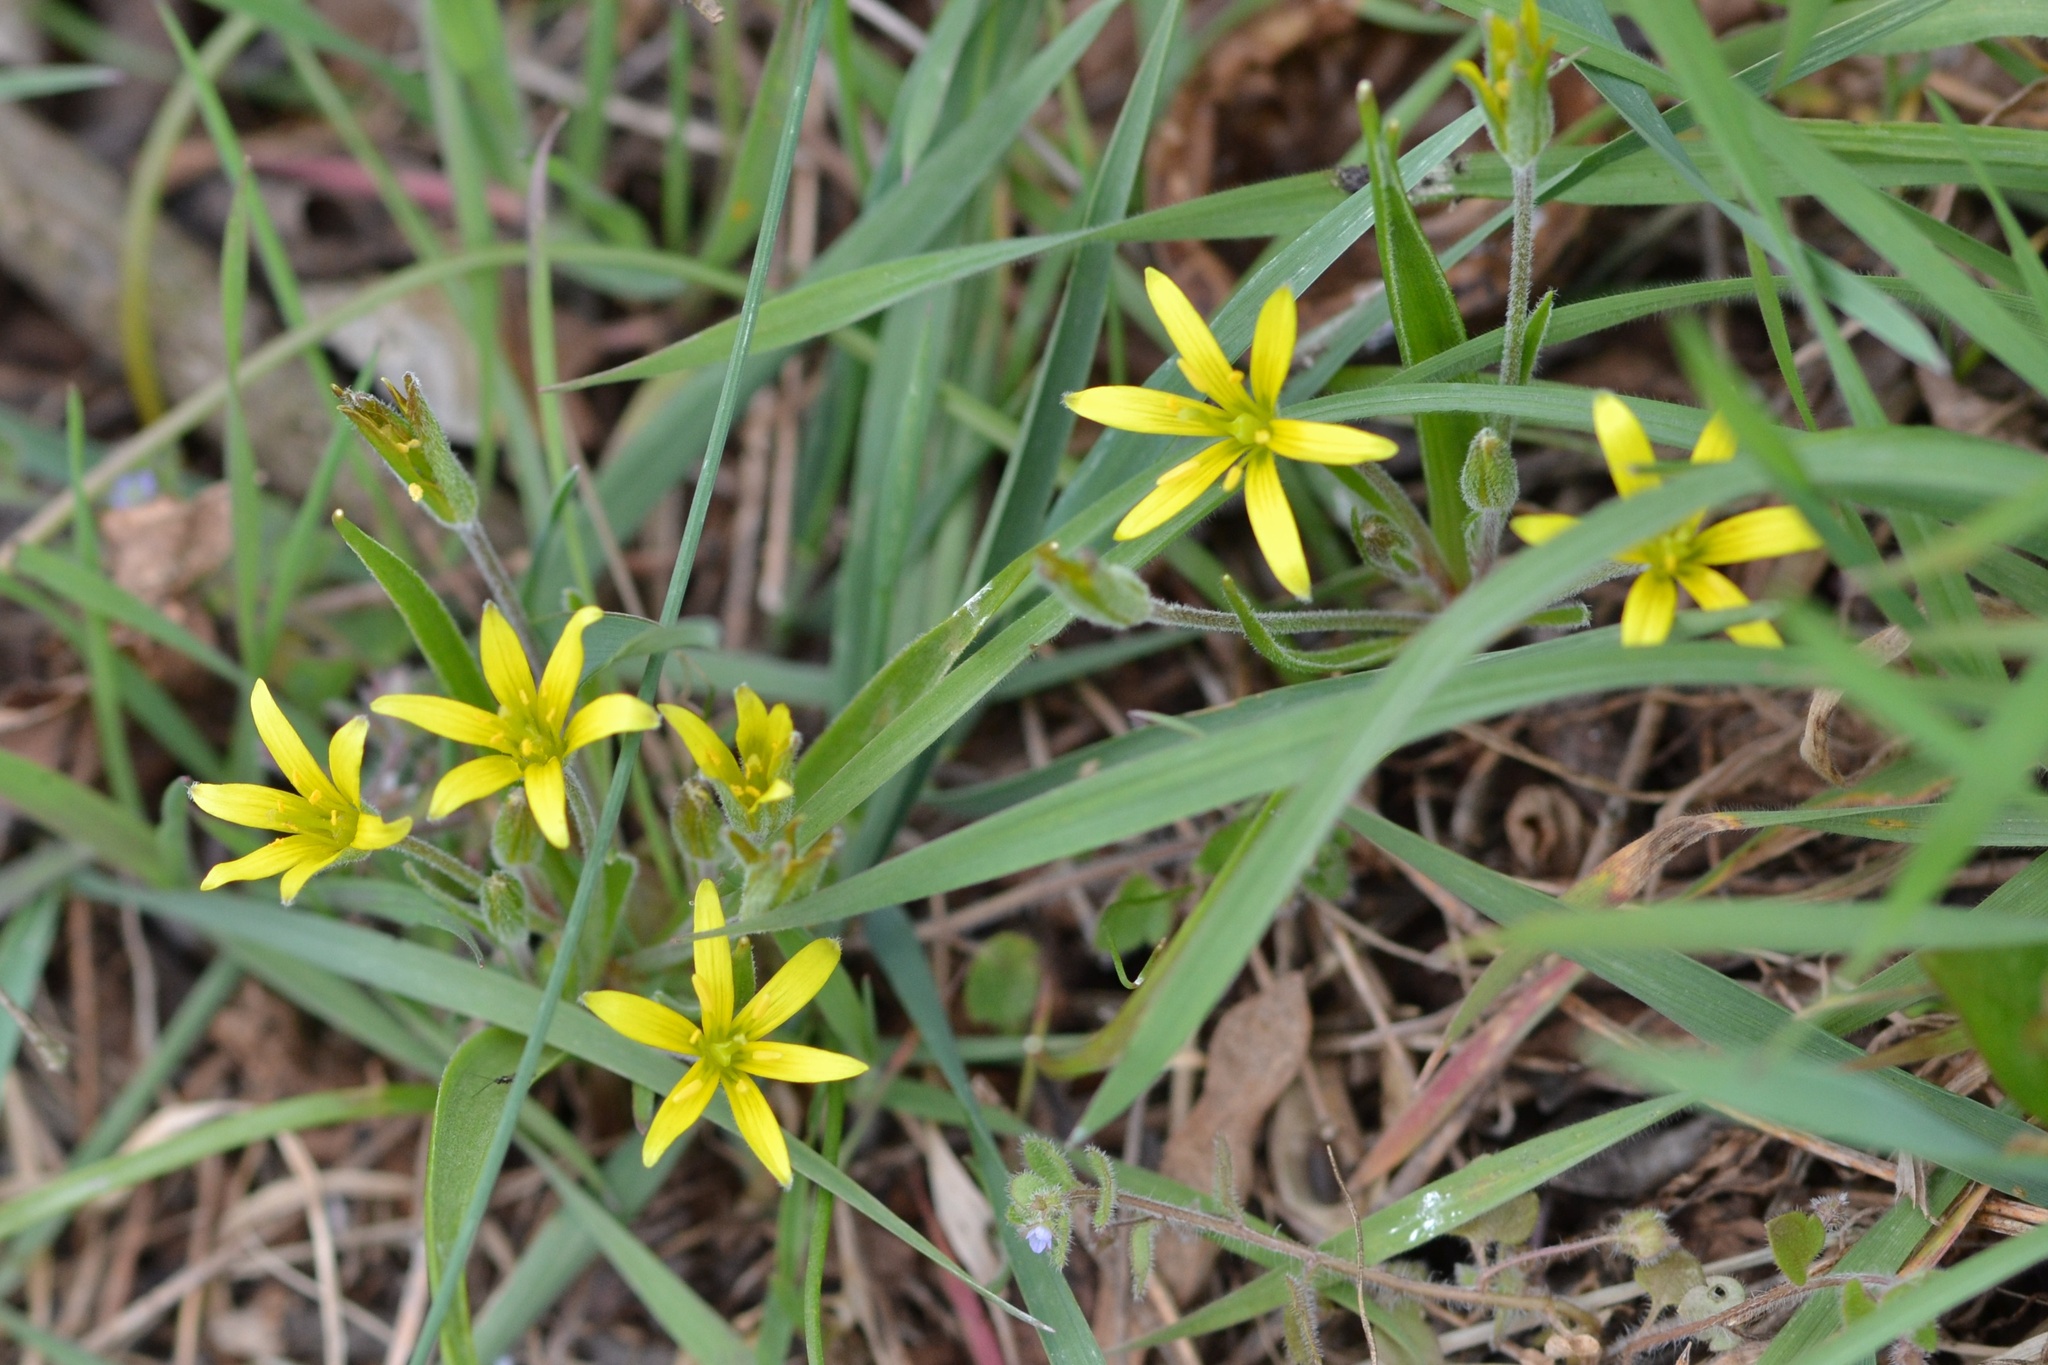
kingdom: Plantae
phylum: Tracheophyta
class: Liliopsida
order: Liliales
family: Liliaceae
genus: Gagea
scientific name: Gagea villosa
